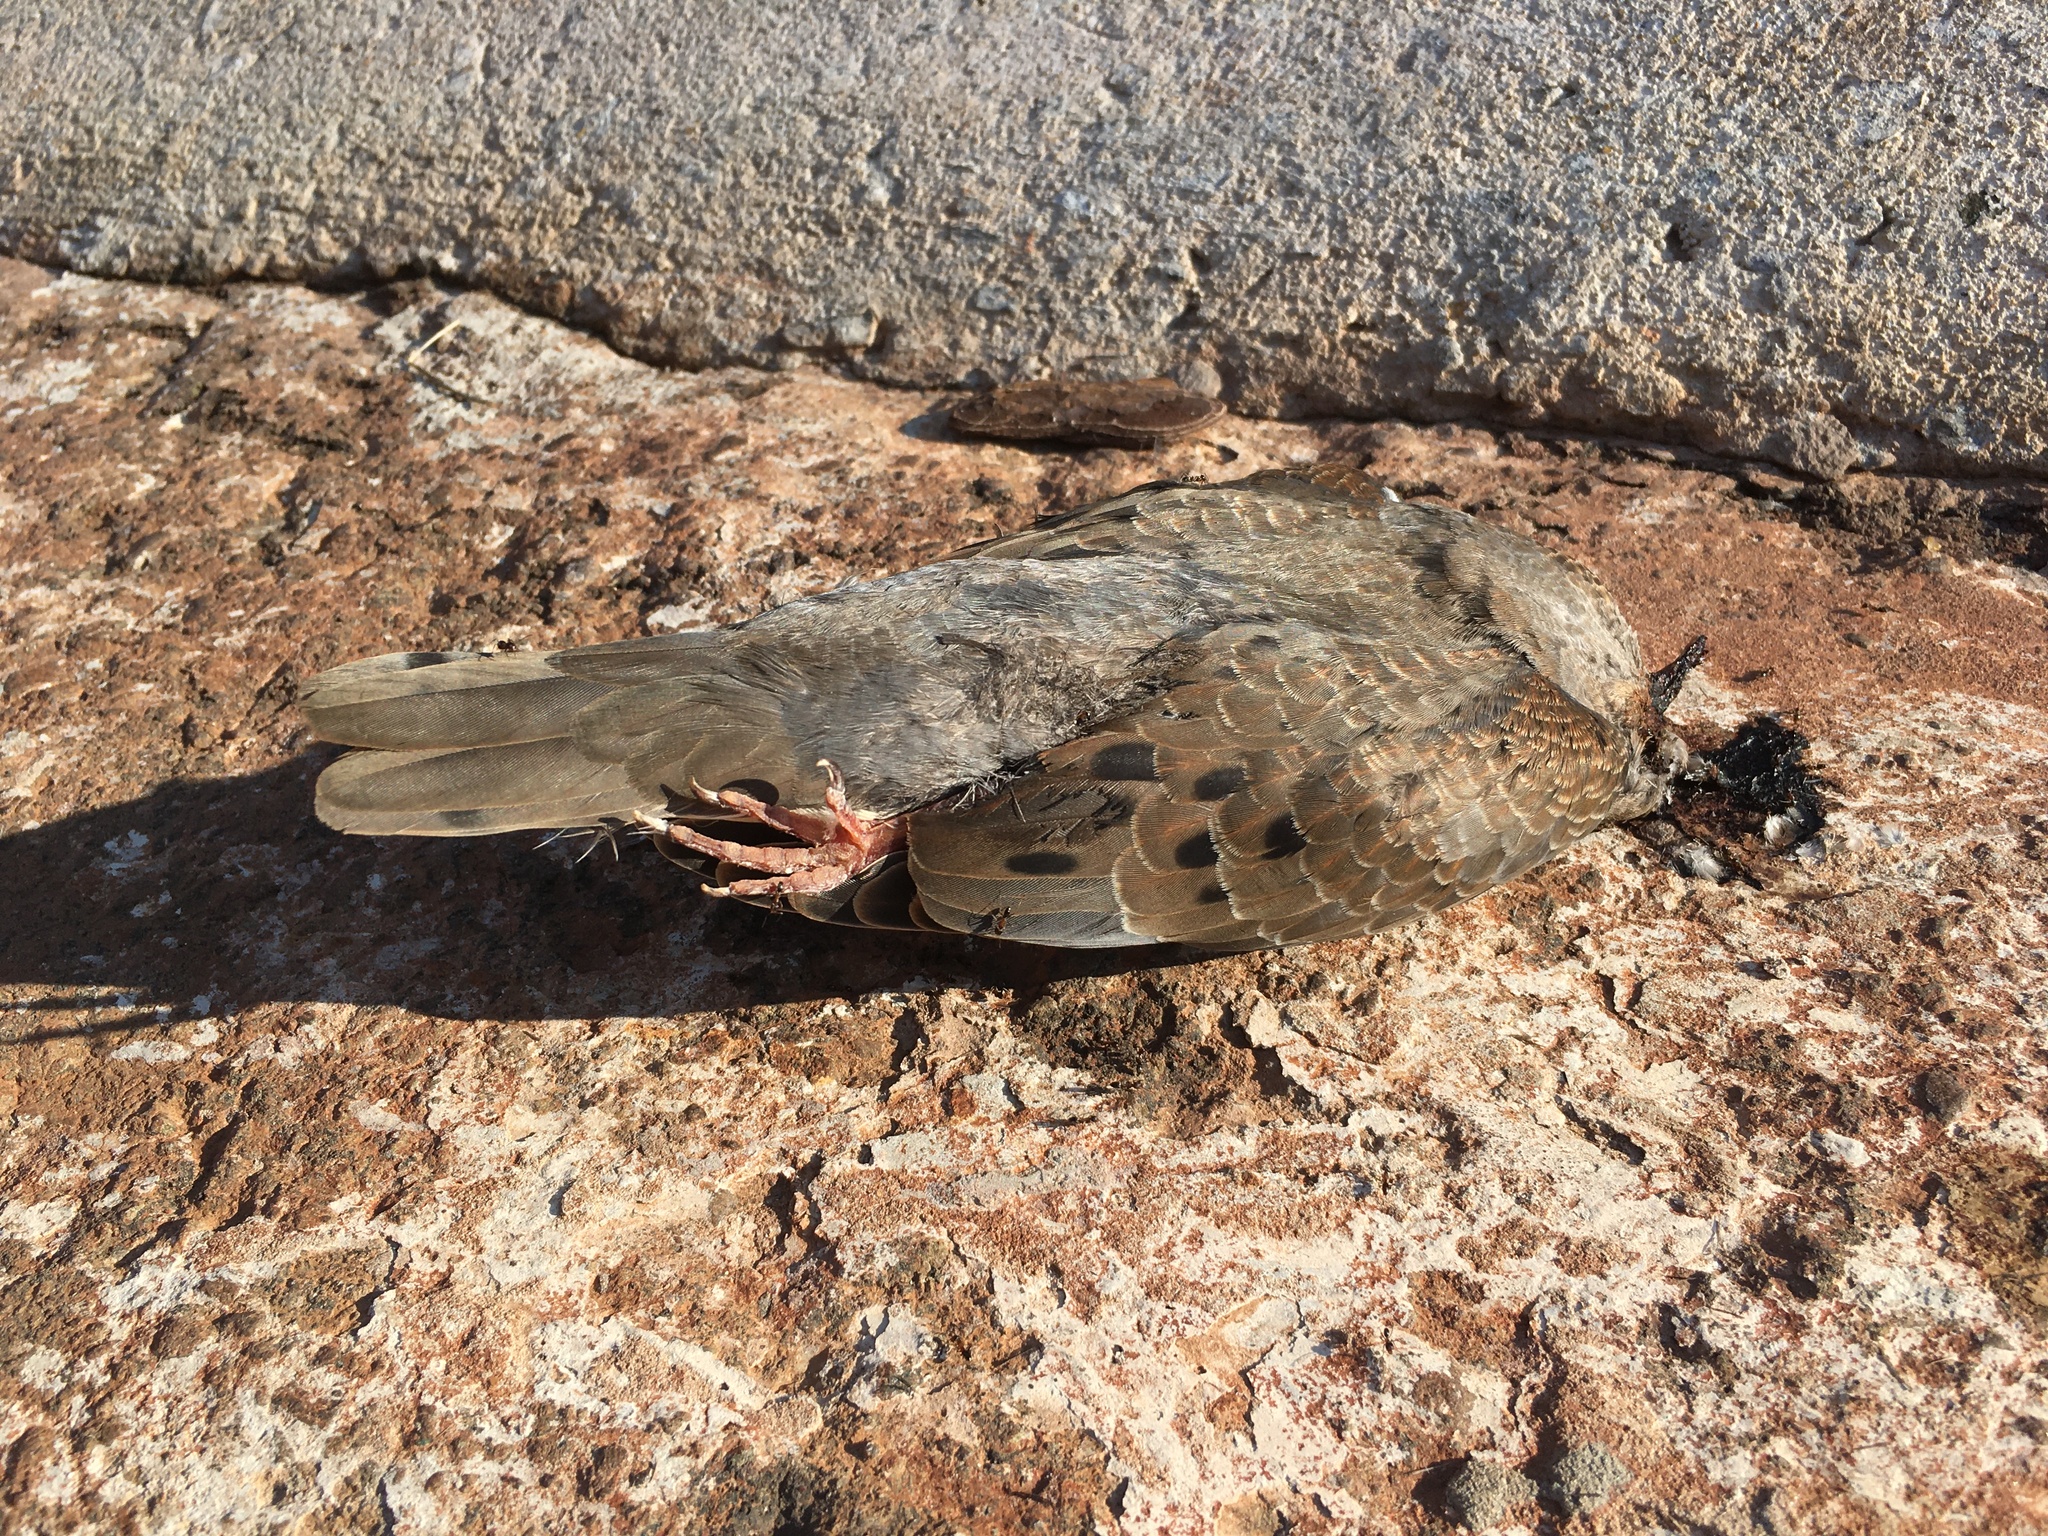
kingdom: Animalia
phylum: Chordata
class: Aves
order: Columbiformes
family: Columbidae
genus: Zenaida
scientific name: Zenaida auriculata
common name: Eared dove
